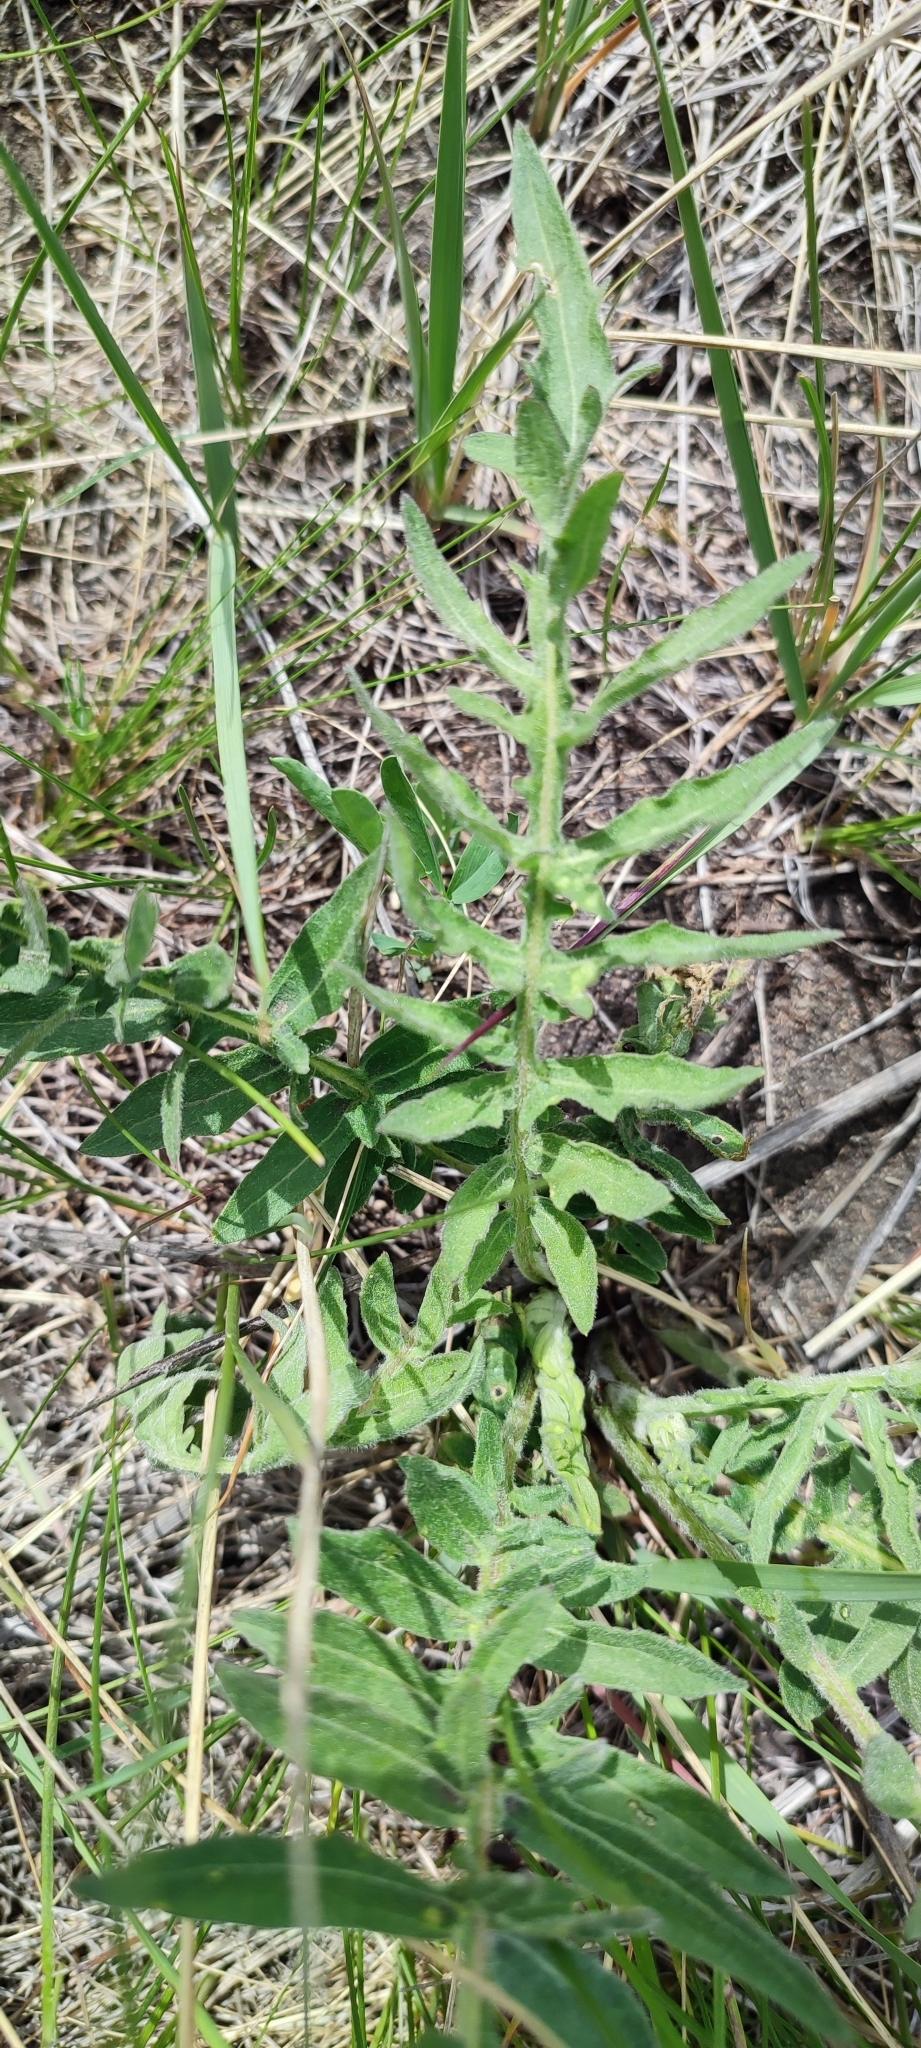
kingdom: Plantae
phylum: Tracheophyta
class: Magnoliopsida
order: Asterales
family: Asteraceae
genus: Centaurea
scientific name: Centaurea scabiosa
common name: Greater knapweed
